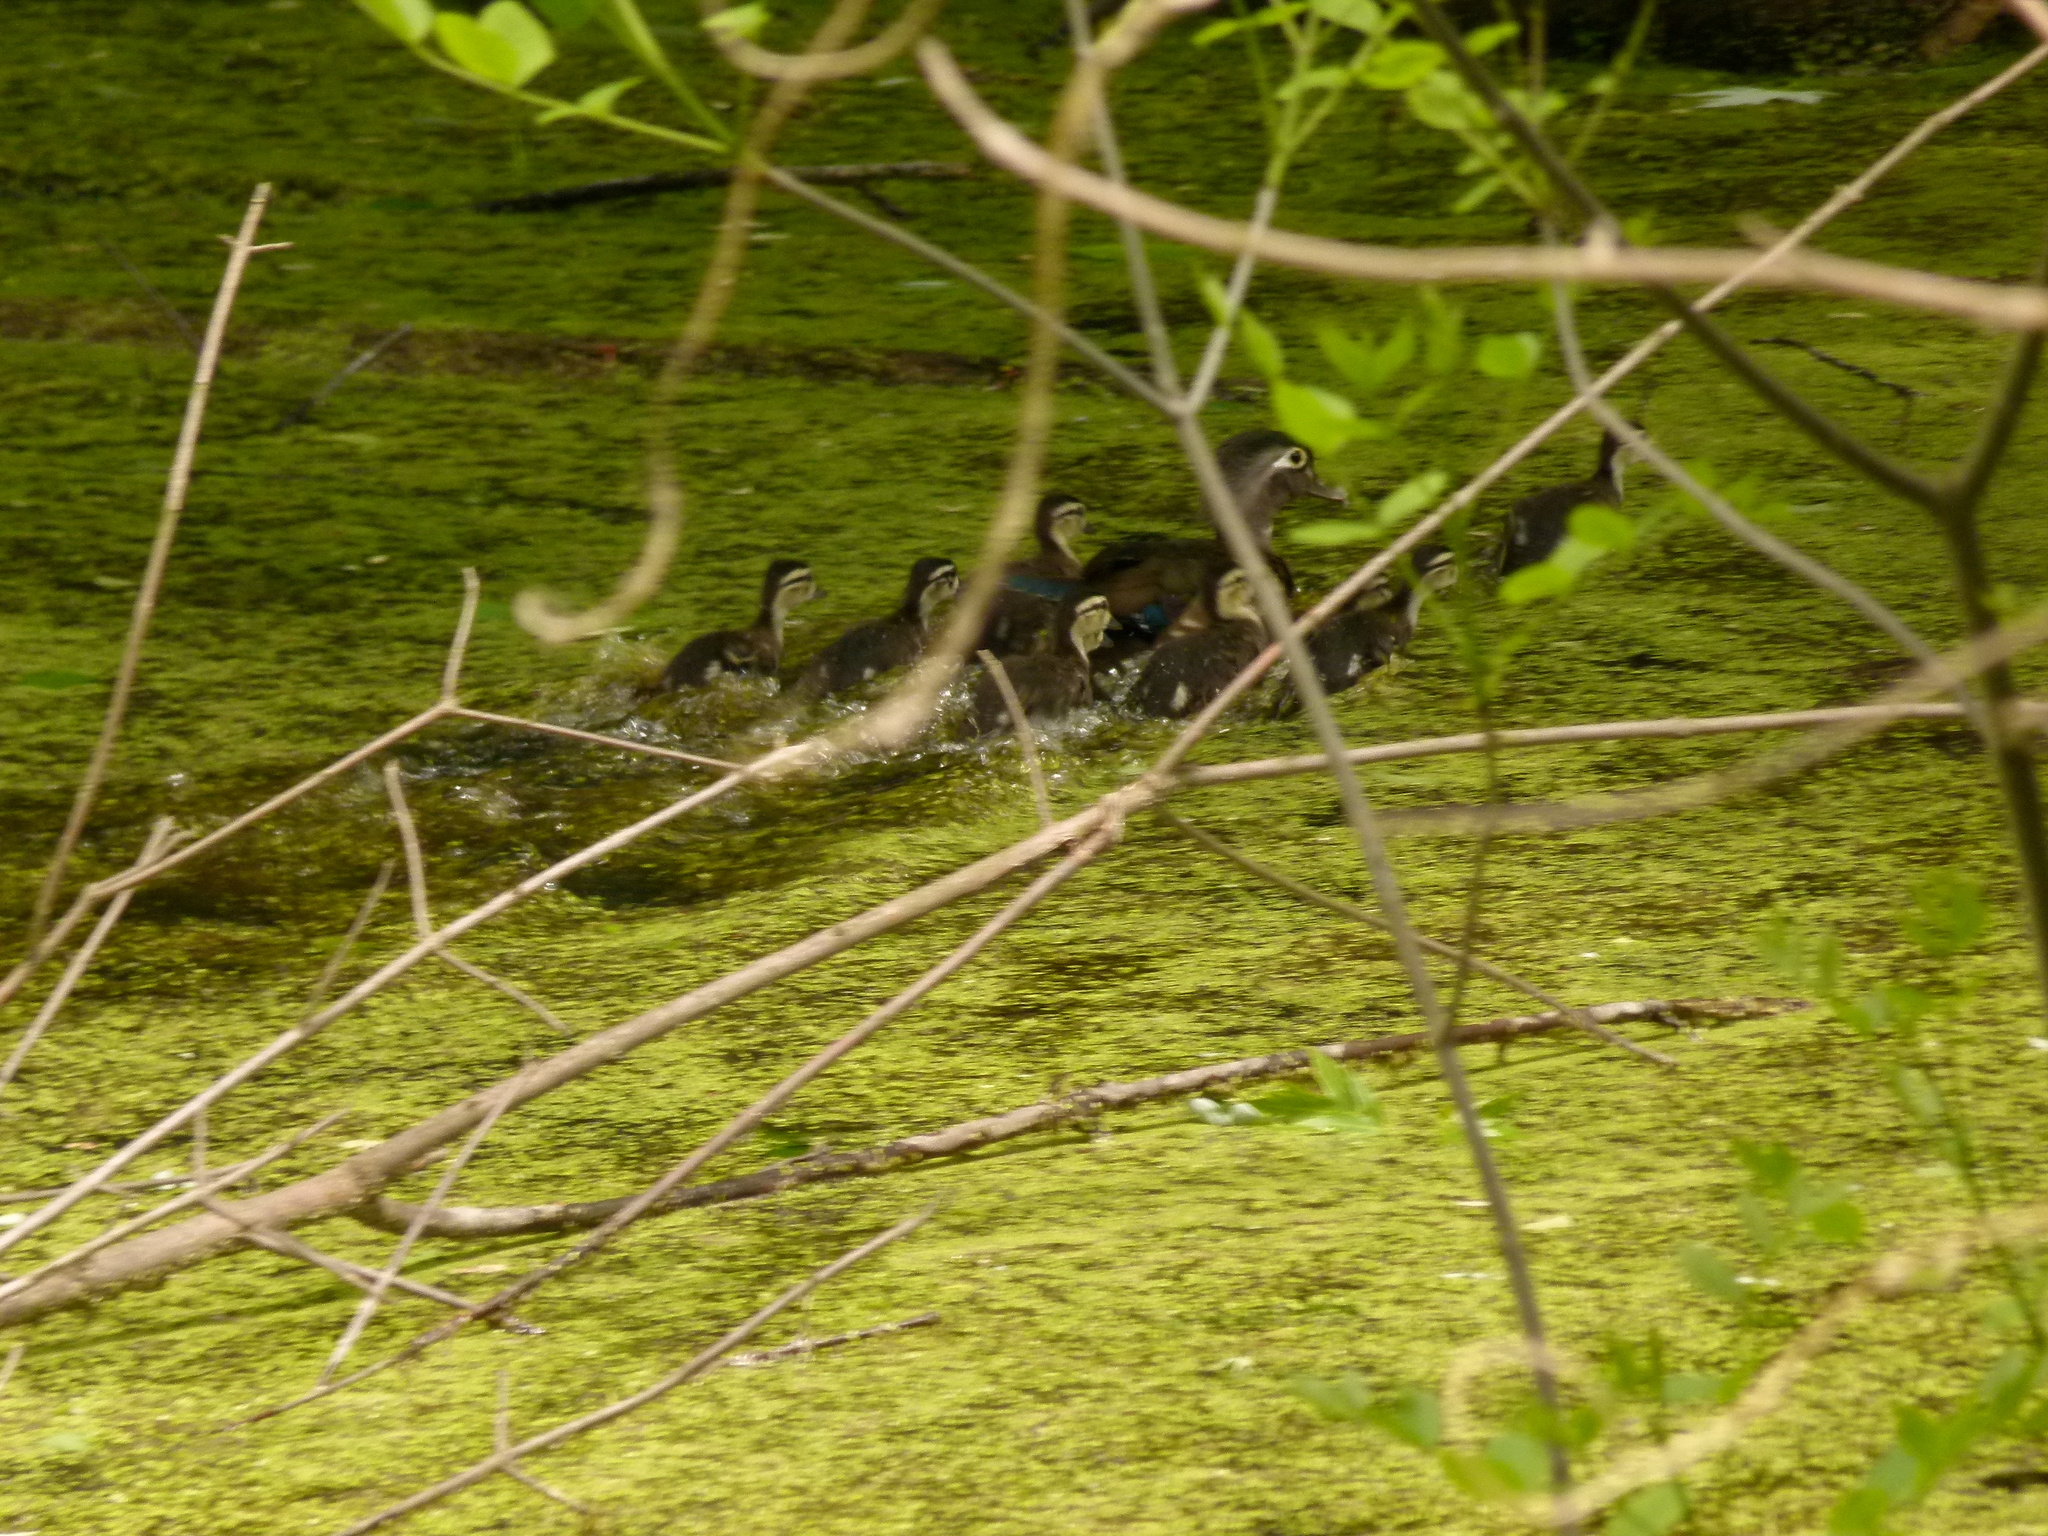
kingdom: Animalia
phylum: Chordata
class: Aves
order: Anseriformes
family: Anatidae
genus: Aix
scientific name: Aix sponsa
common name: Wood duck
